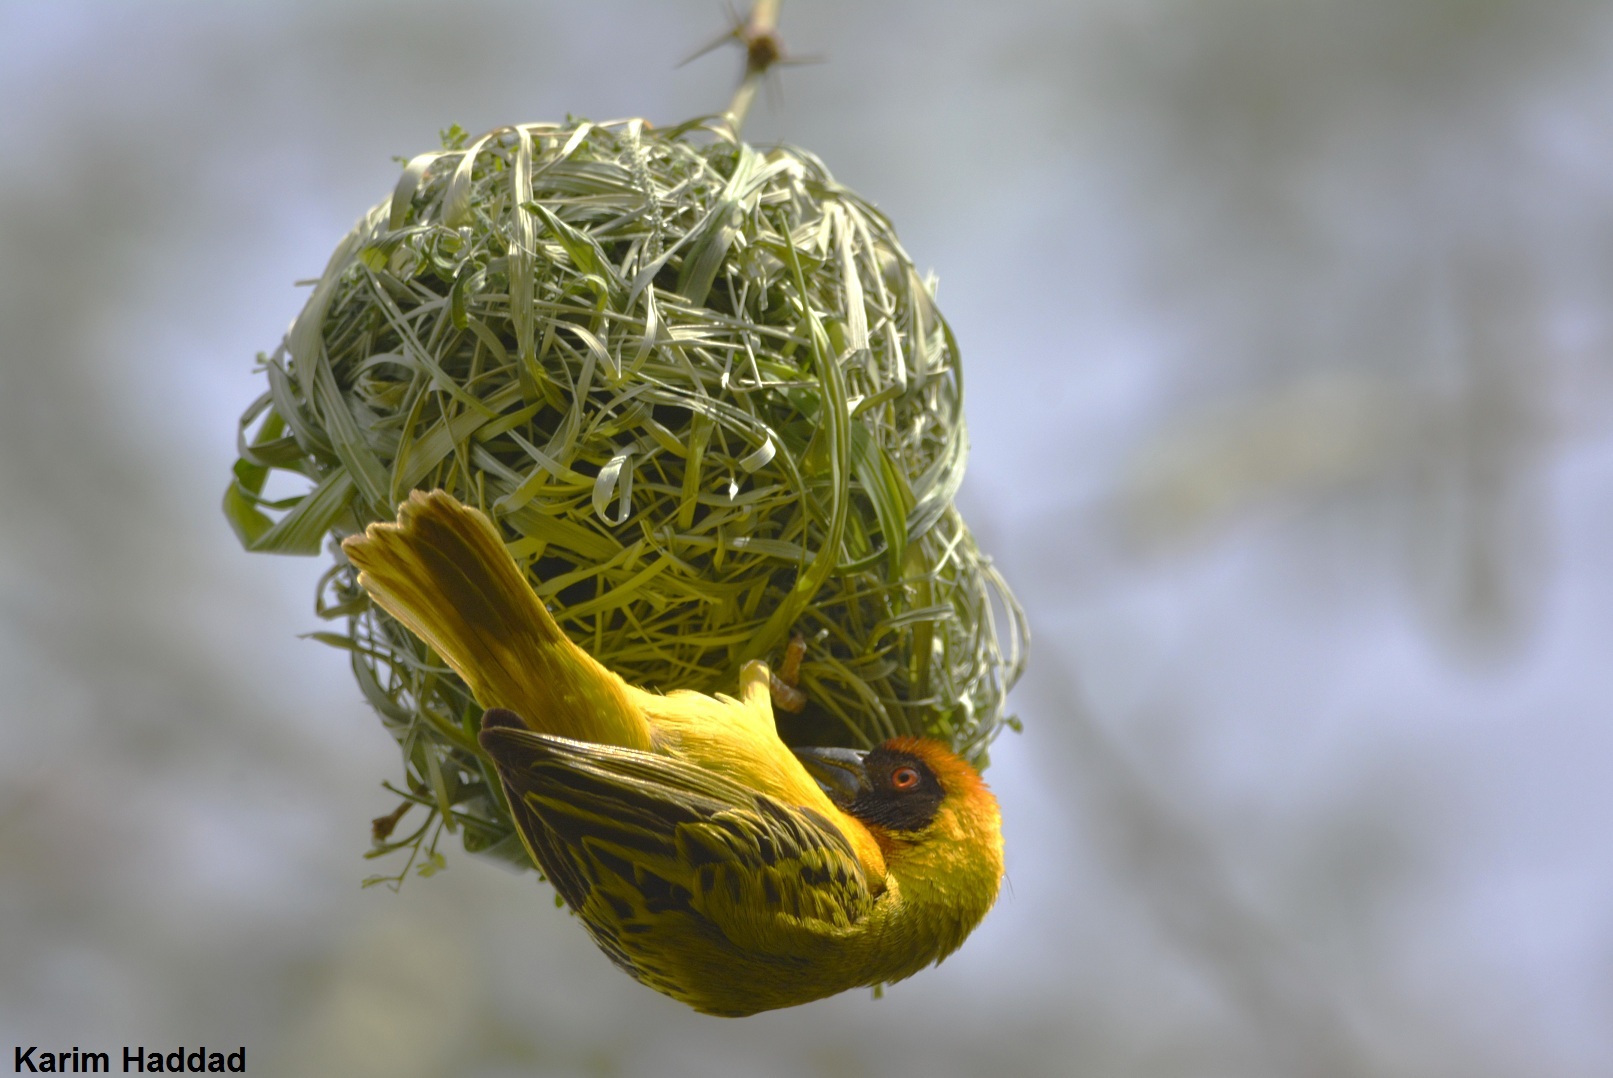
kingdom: Animalia
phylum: Chordata
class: Aves
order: Passeriformes
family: Ploceidae
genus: Ploceus
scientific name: Ploceus vitellinus
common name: Vitelline masked weaver
